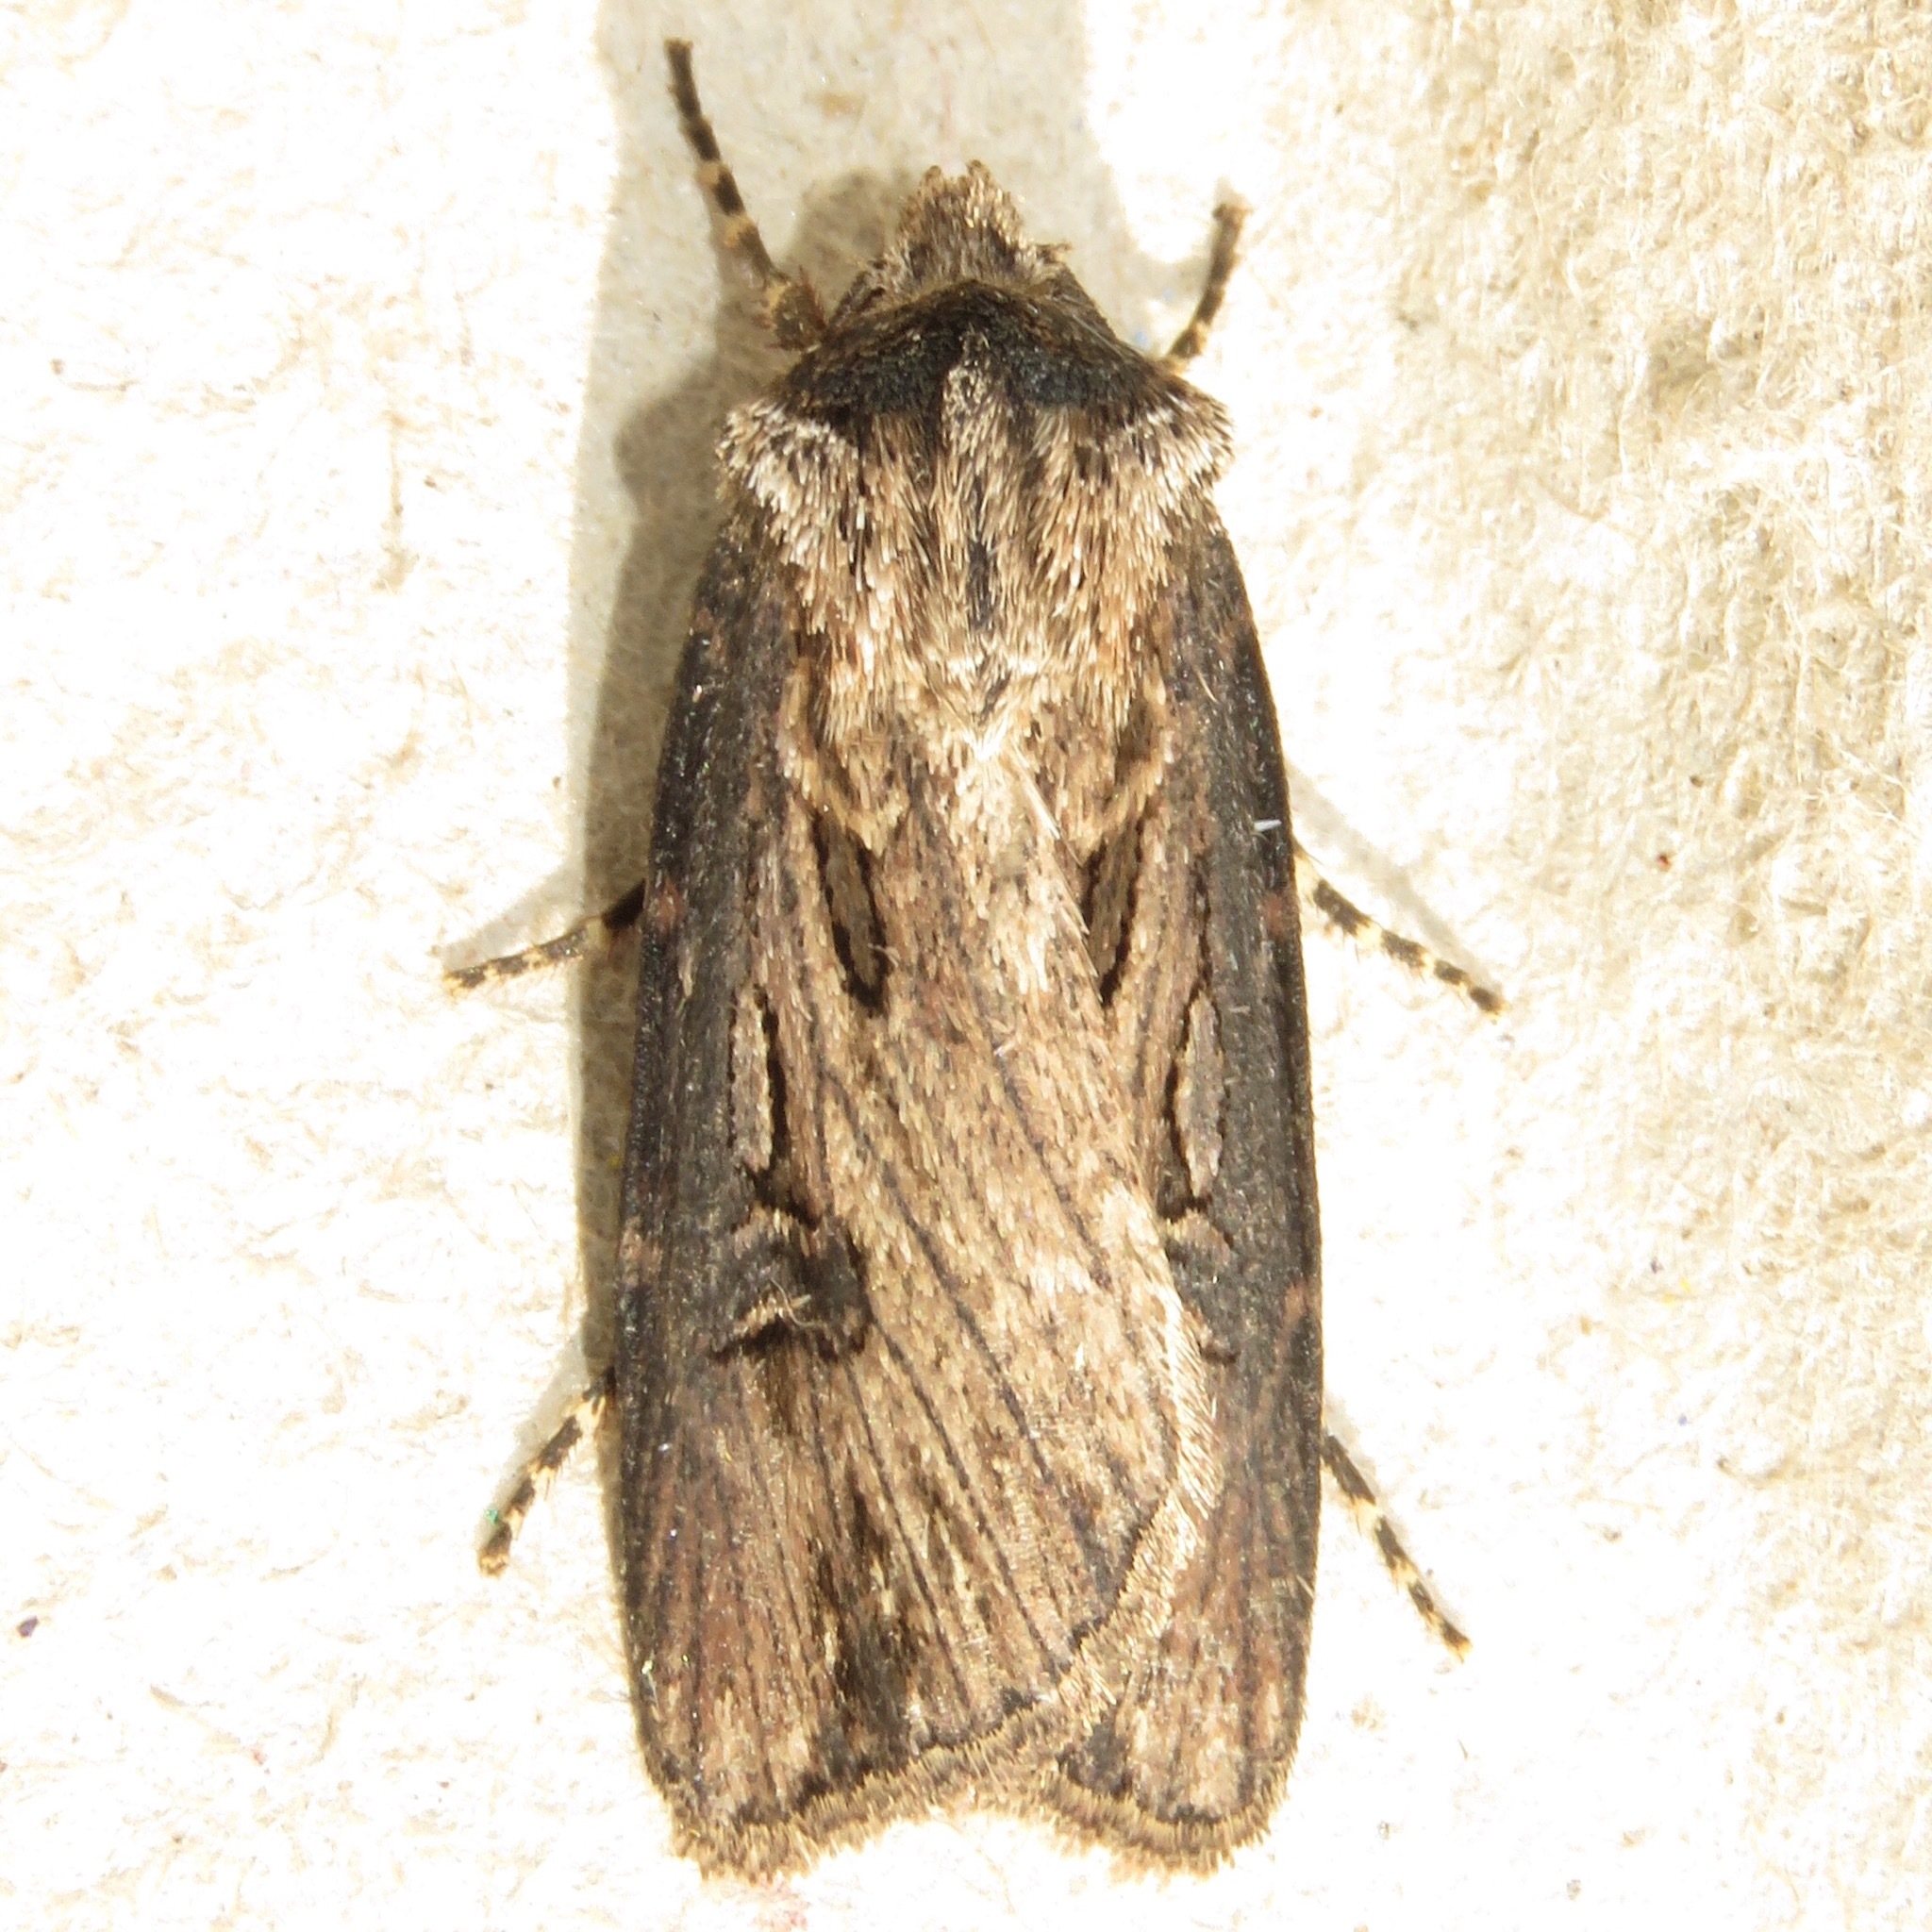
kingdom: Animalia
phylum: Arthropoda
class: Insecta
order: Lepidoptera
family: Noctuidae
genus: Agrotis
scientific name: Agrotis venerabilis
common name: Venerable dart
